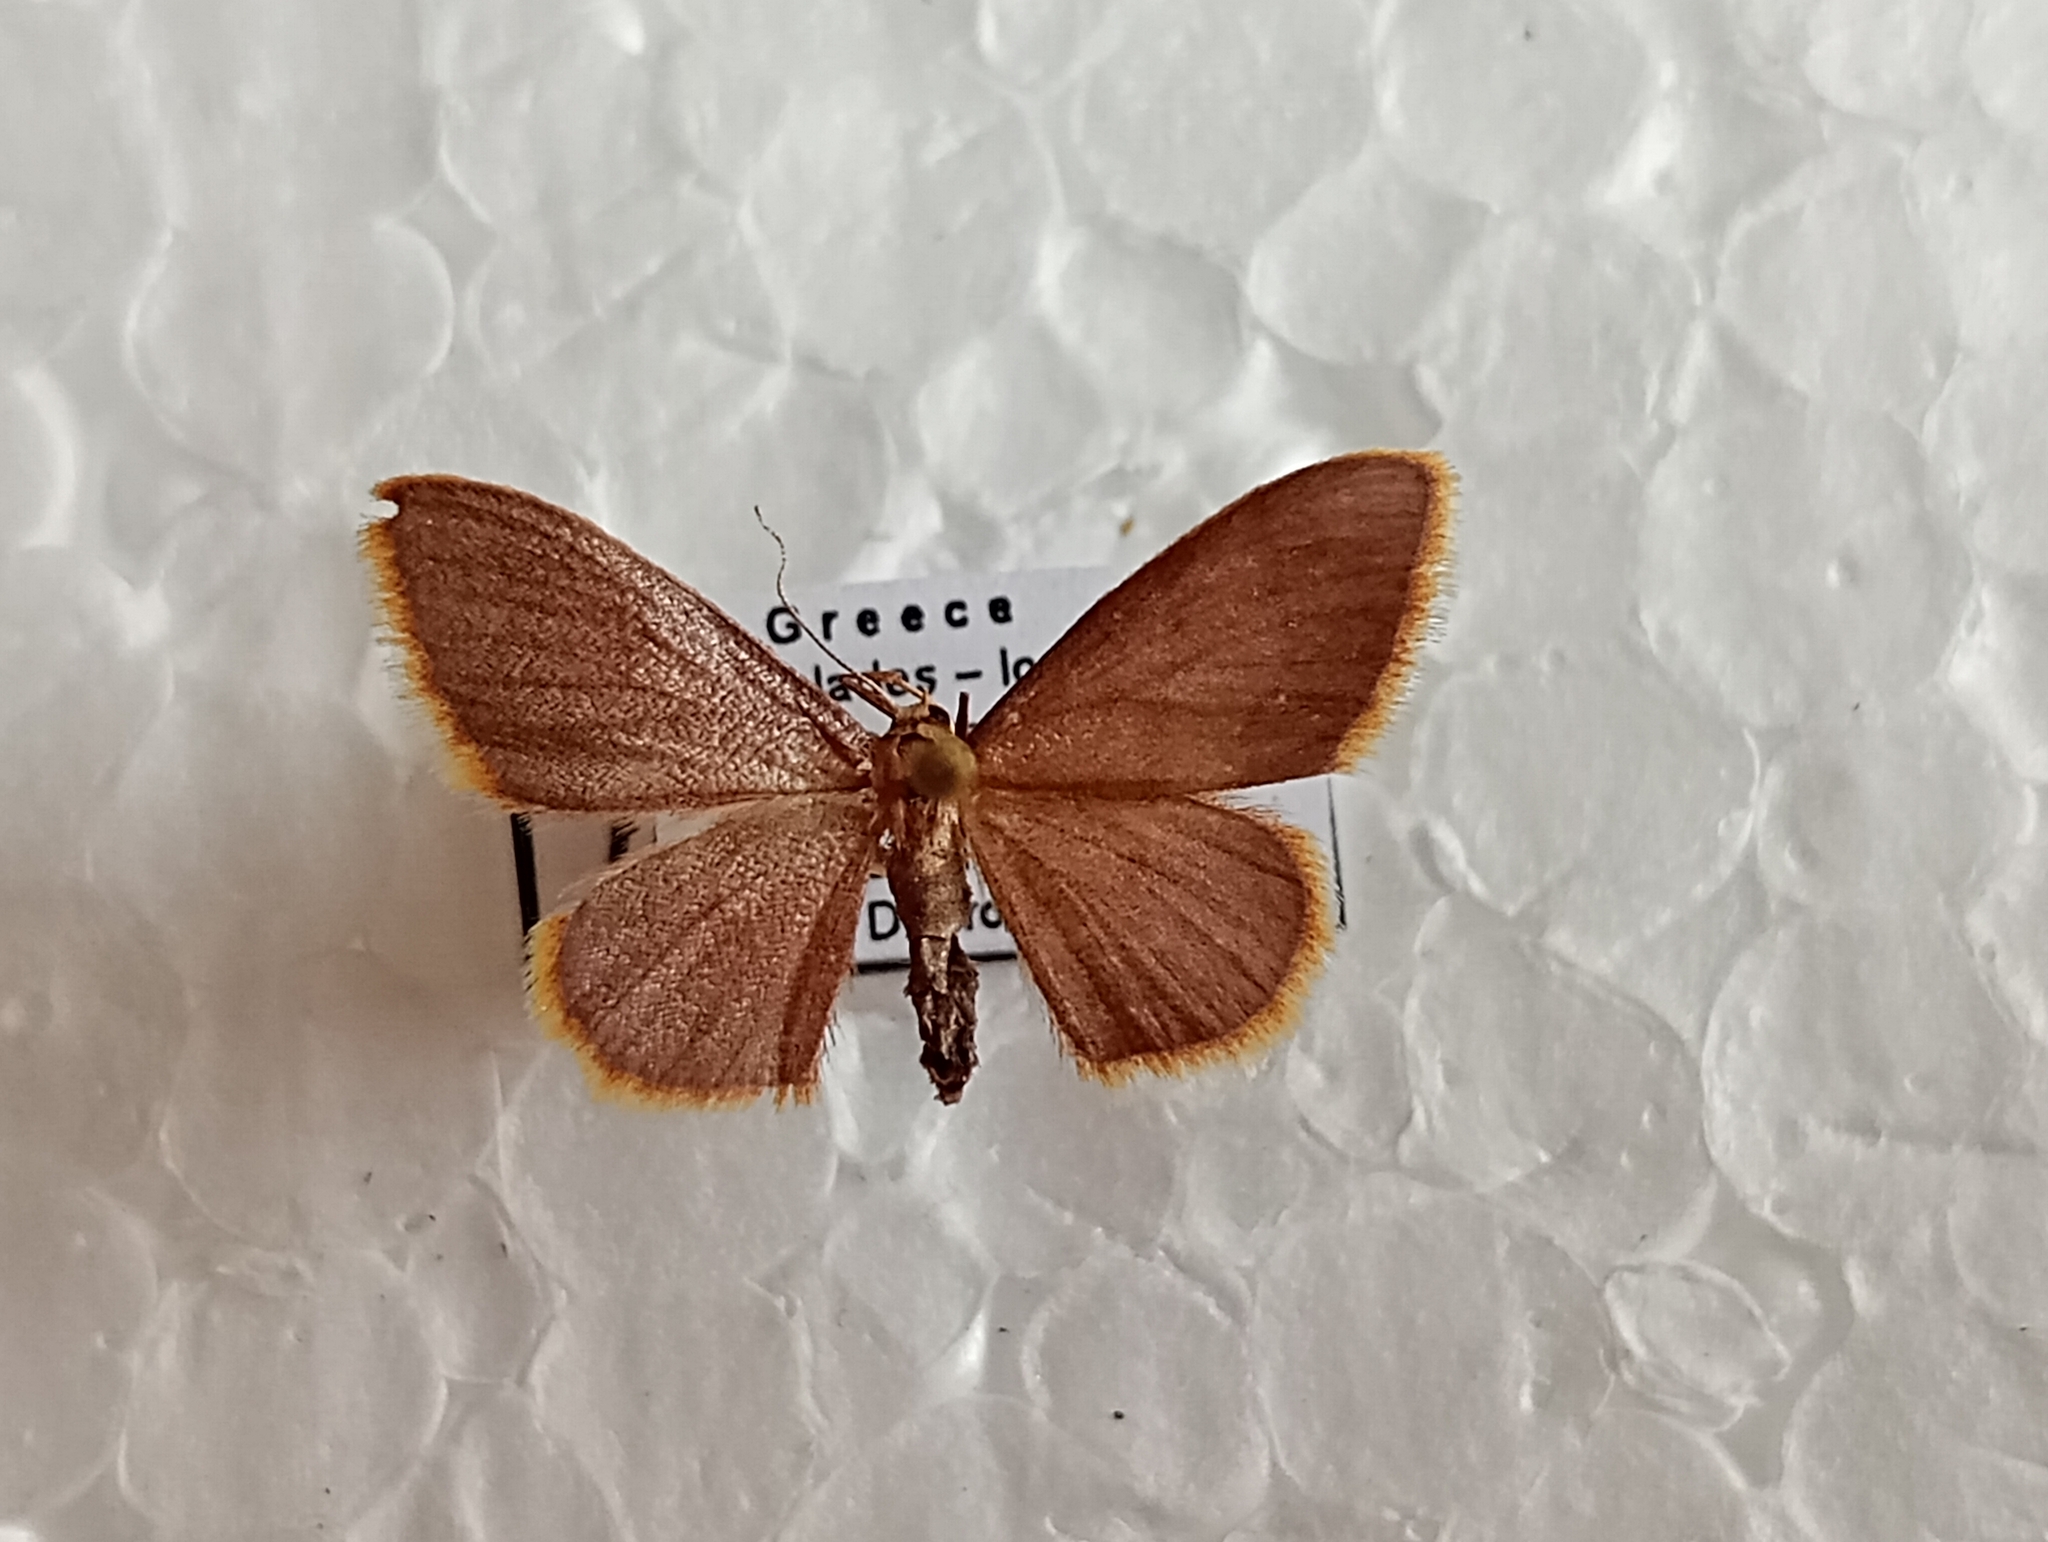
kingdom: Animalia
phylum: Arthropoda
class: Insecta
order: Lepidoptera
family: Geometridae
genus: Idaea
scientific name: Idaea ostrinaria
